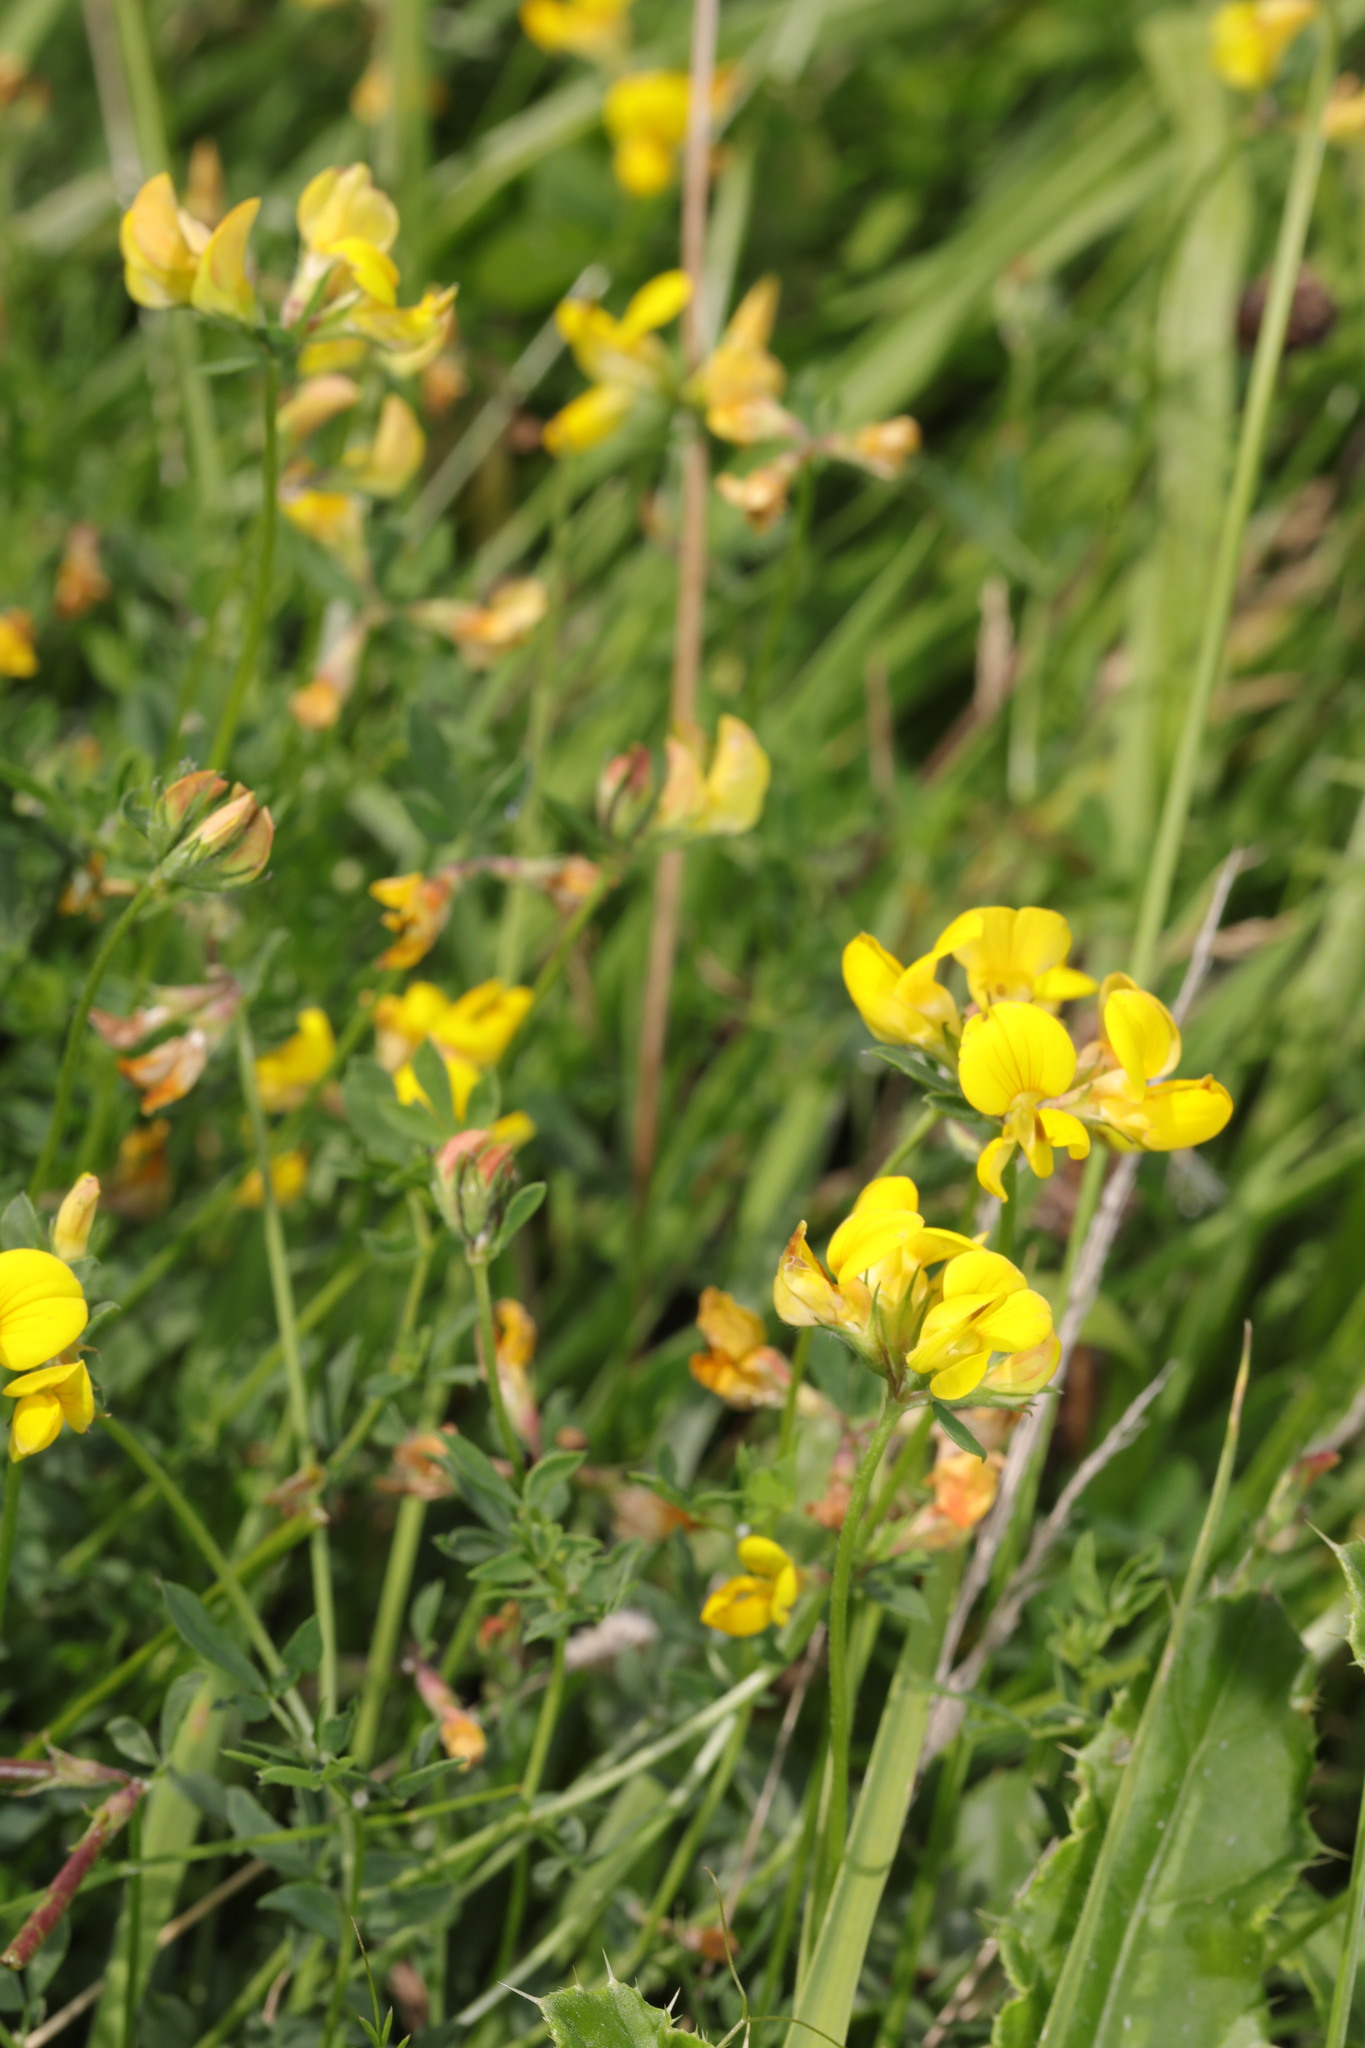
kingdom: Plantae
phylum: Tracheophyta
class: Magnoliopsida
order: Fabales
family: Fabaceae
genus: Lotus
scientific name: Lotus corniculatus
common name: Common bird's-foot-trefoil
